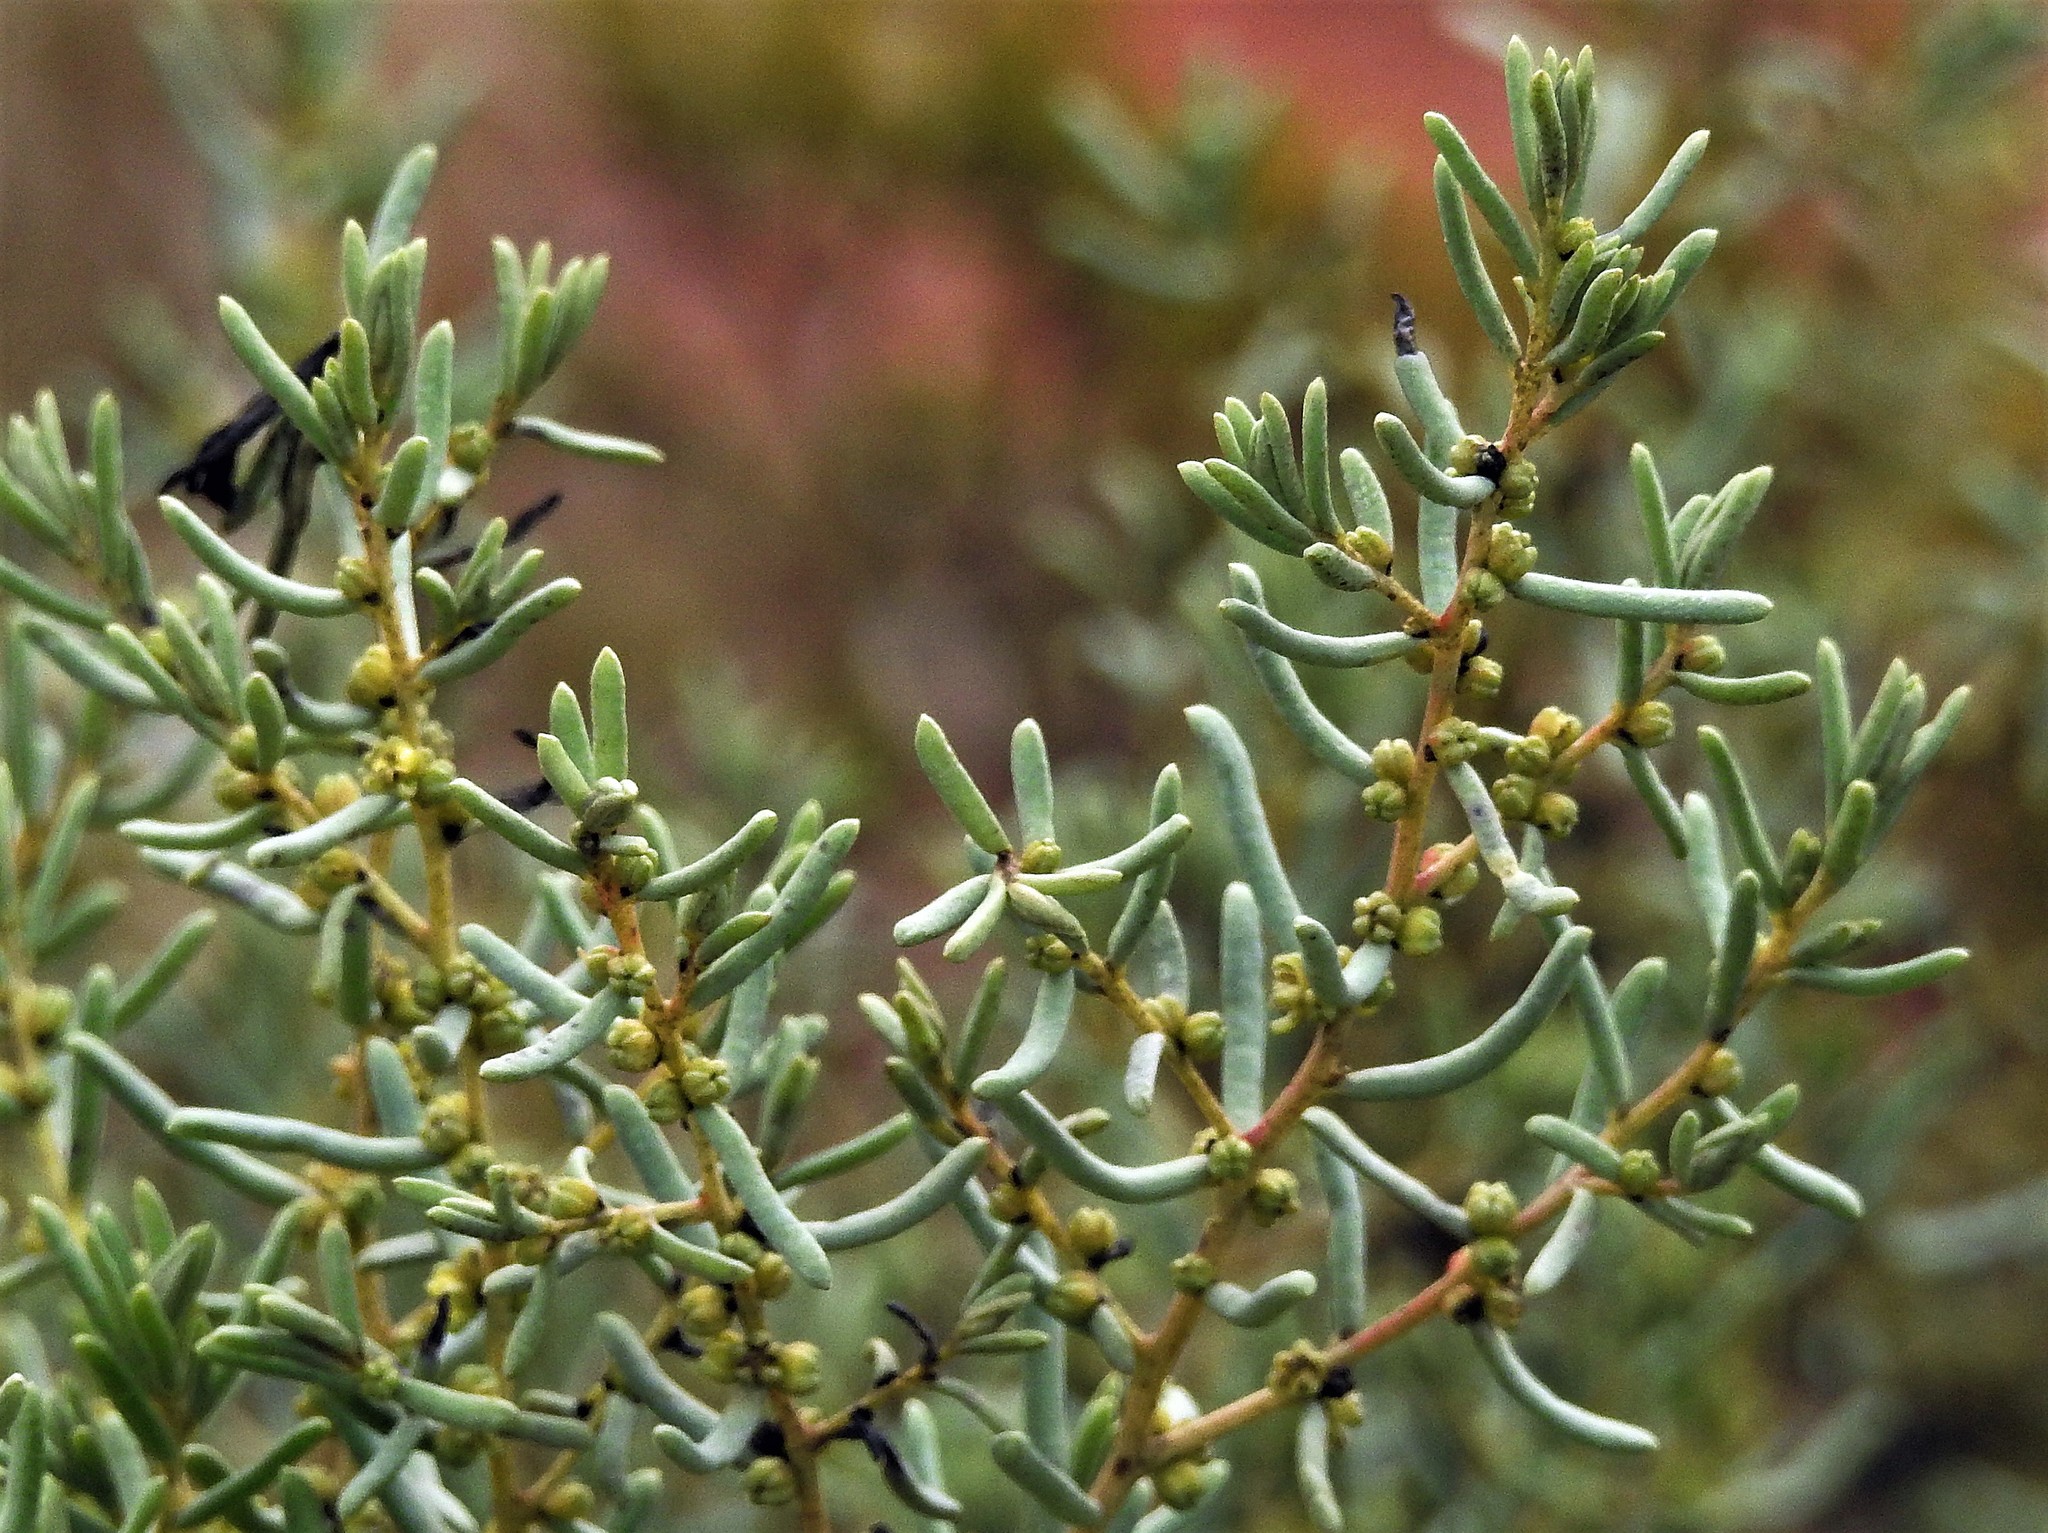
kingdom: Plantae
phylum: Tracheophyta
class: Magnoliopsida
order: Caryophyllales
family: Amaranthaceae
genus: Suaeda
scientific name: Suaeda divaricata
